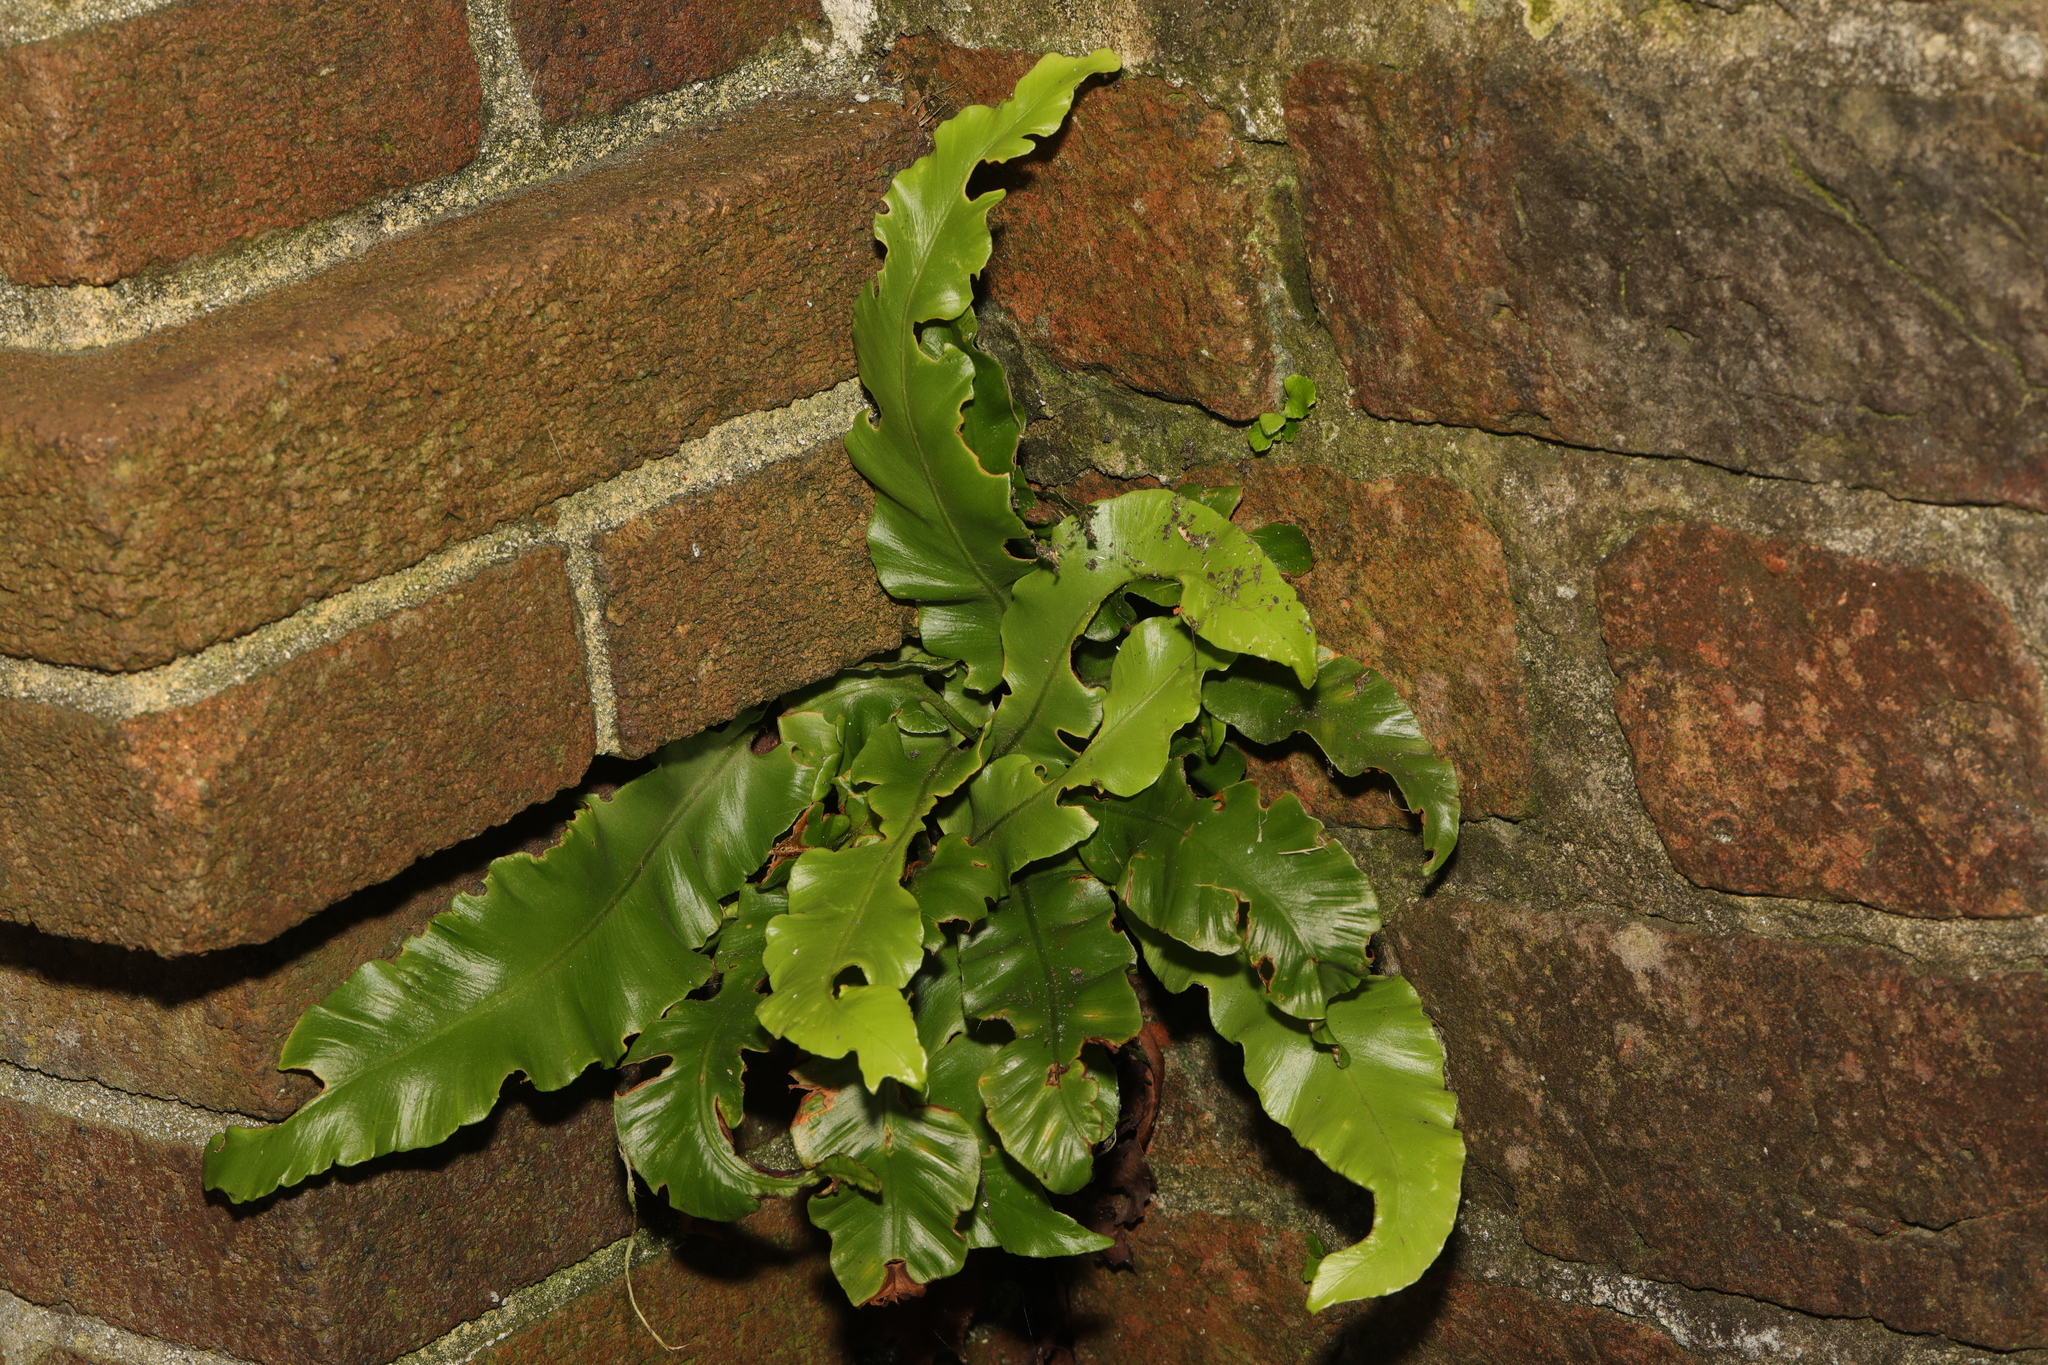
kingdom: Plantae
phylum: Tracheophyta
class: Polypodiopsida
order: Polypodiales
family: Aspleniaceae
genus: Asplenium
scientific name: Asplenium scolopendrium
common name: Hart's-tongue fern
